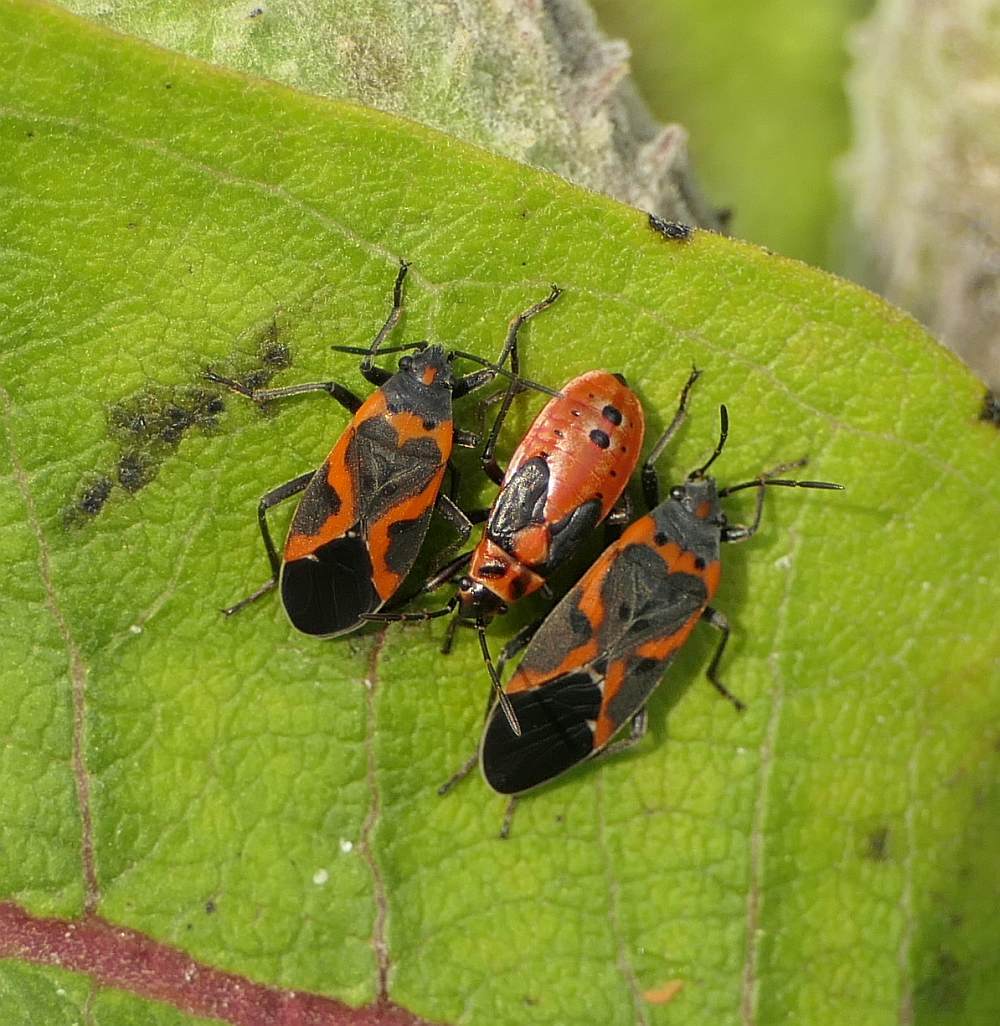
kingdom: Animalia
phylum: Arthropoda
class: Insecta
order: Hemiptera
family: Lygaeidae
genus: Lygaeus
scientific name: Lygaeus kalmii
